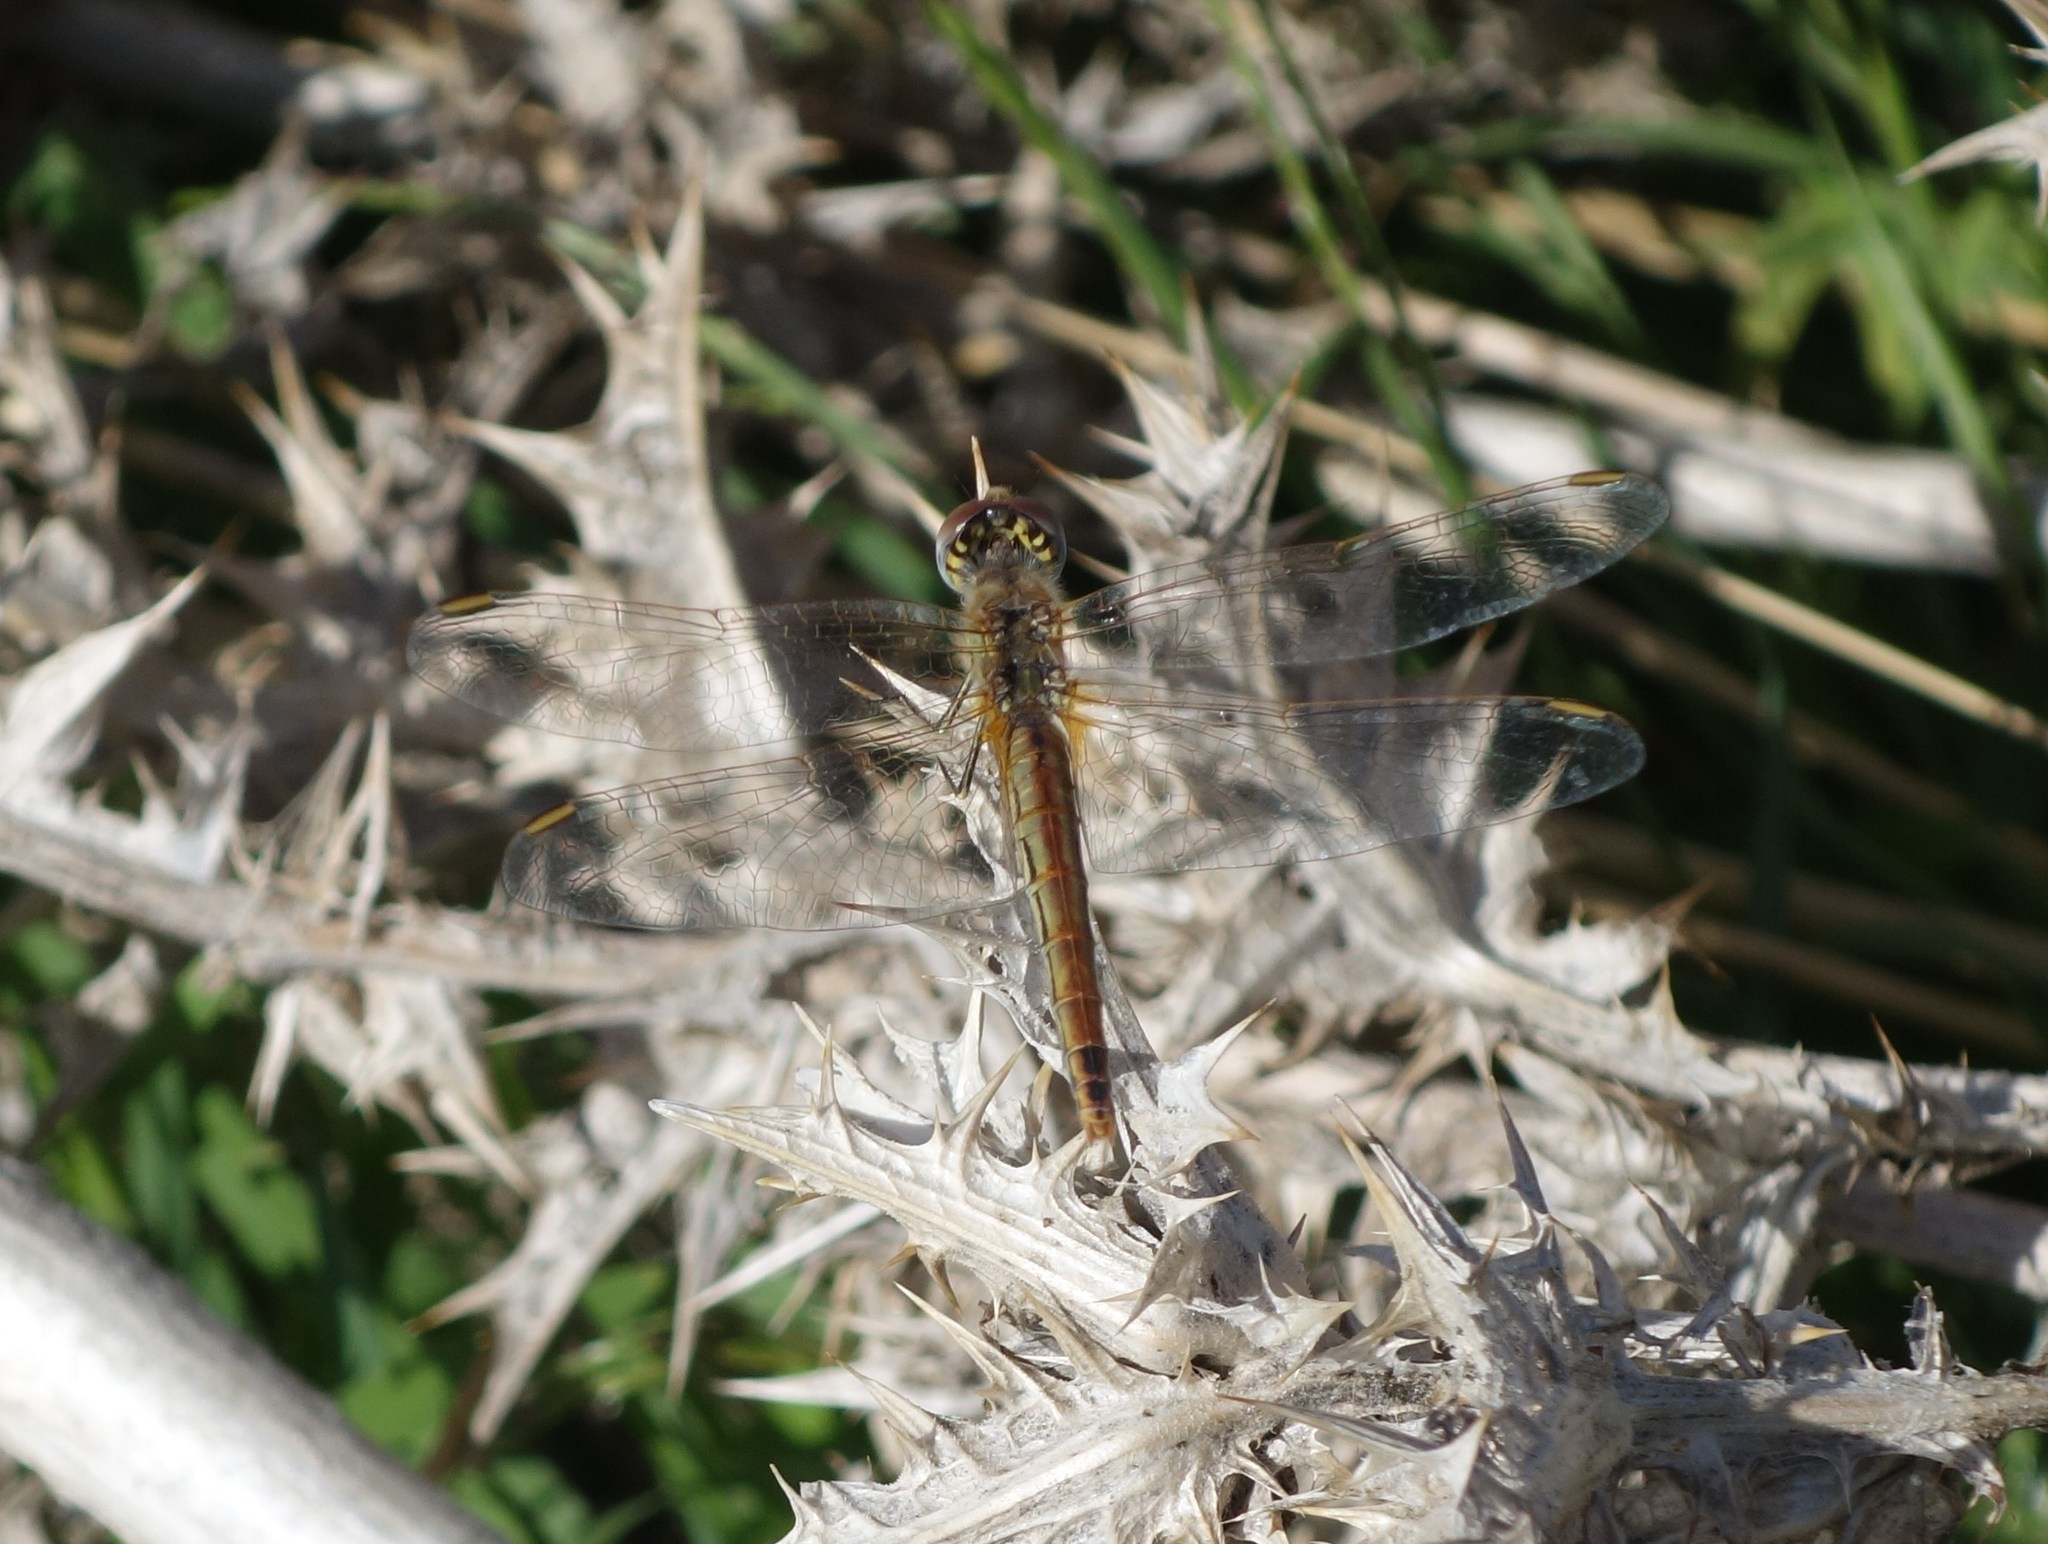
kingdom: Animalia
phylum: Arthropoda
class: Insecta
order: Odonata
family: Libellulidae
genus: Sympetrum
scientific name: Sympetrum fonscolombii
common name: Red-veined darter
